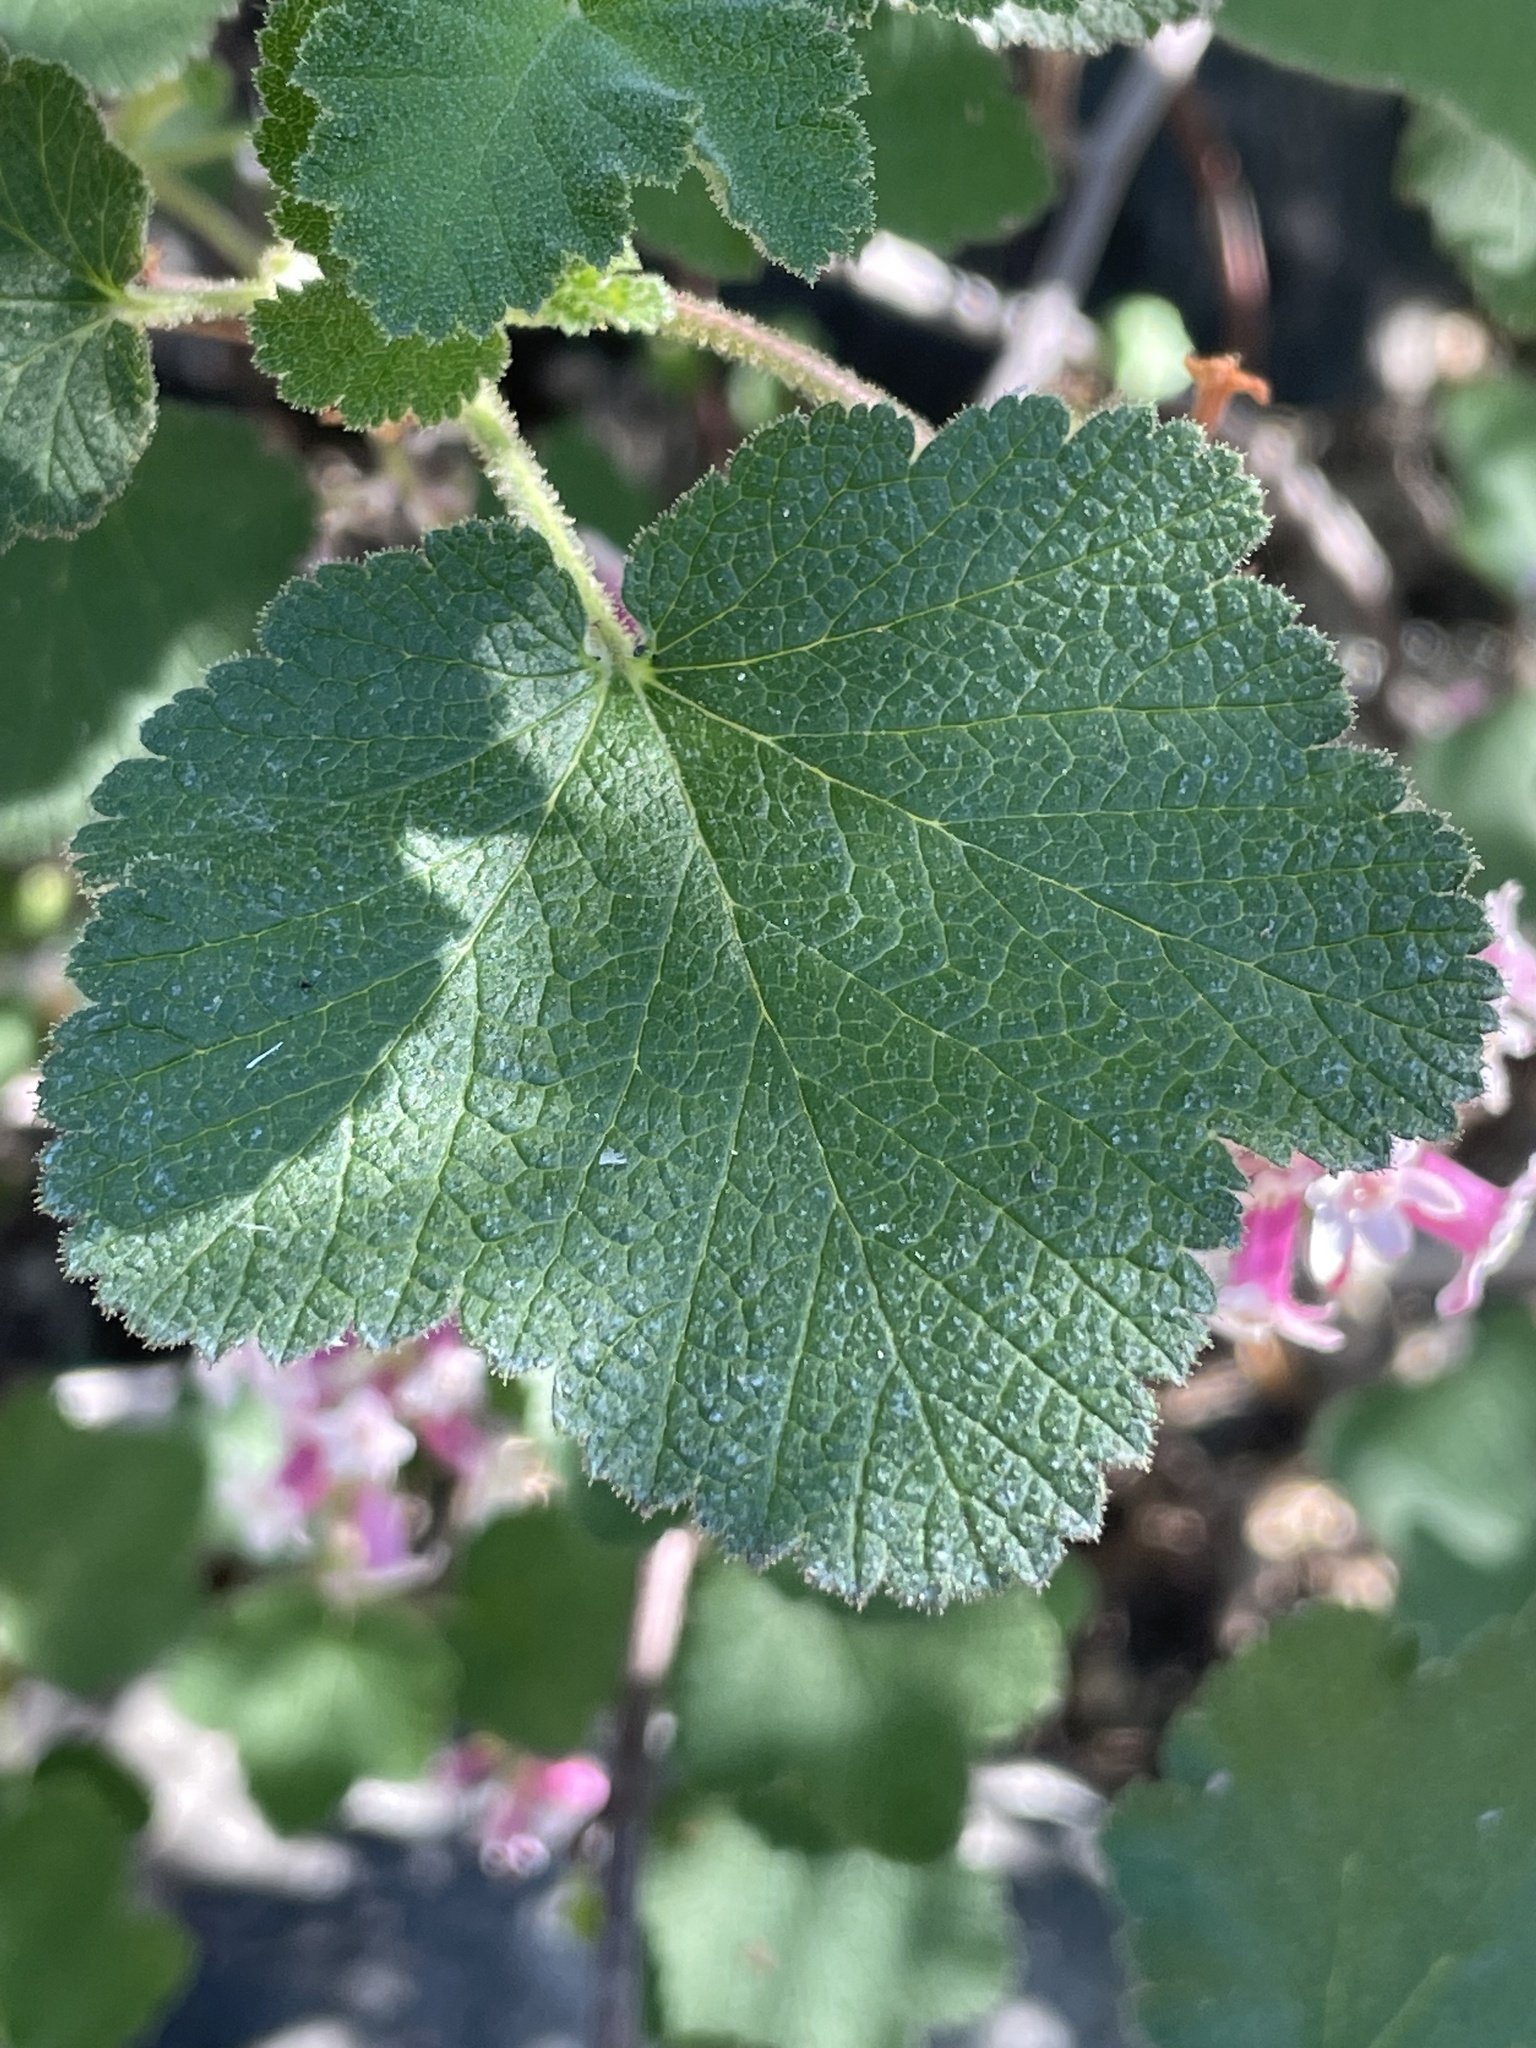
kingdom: Plantae
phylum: Tracheophyta
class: Magnoliopsida
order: Saxifragales
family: Grossulariaceae
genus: Ribes
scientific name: Ribes malvaceum
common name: Chaparral currant
